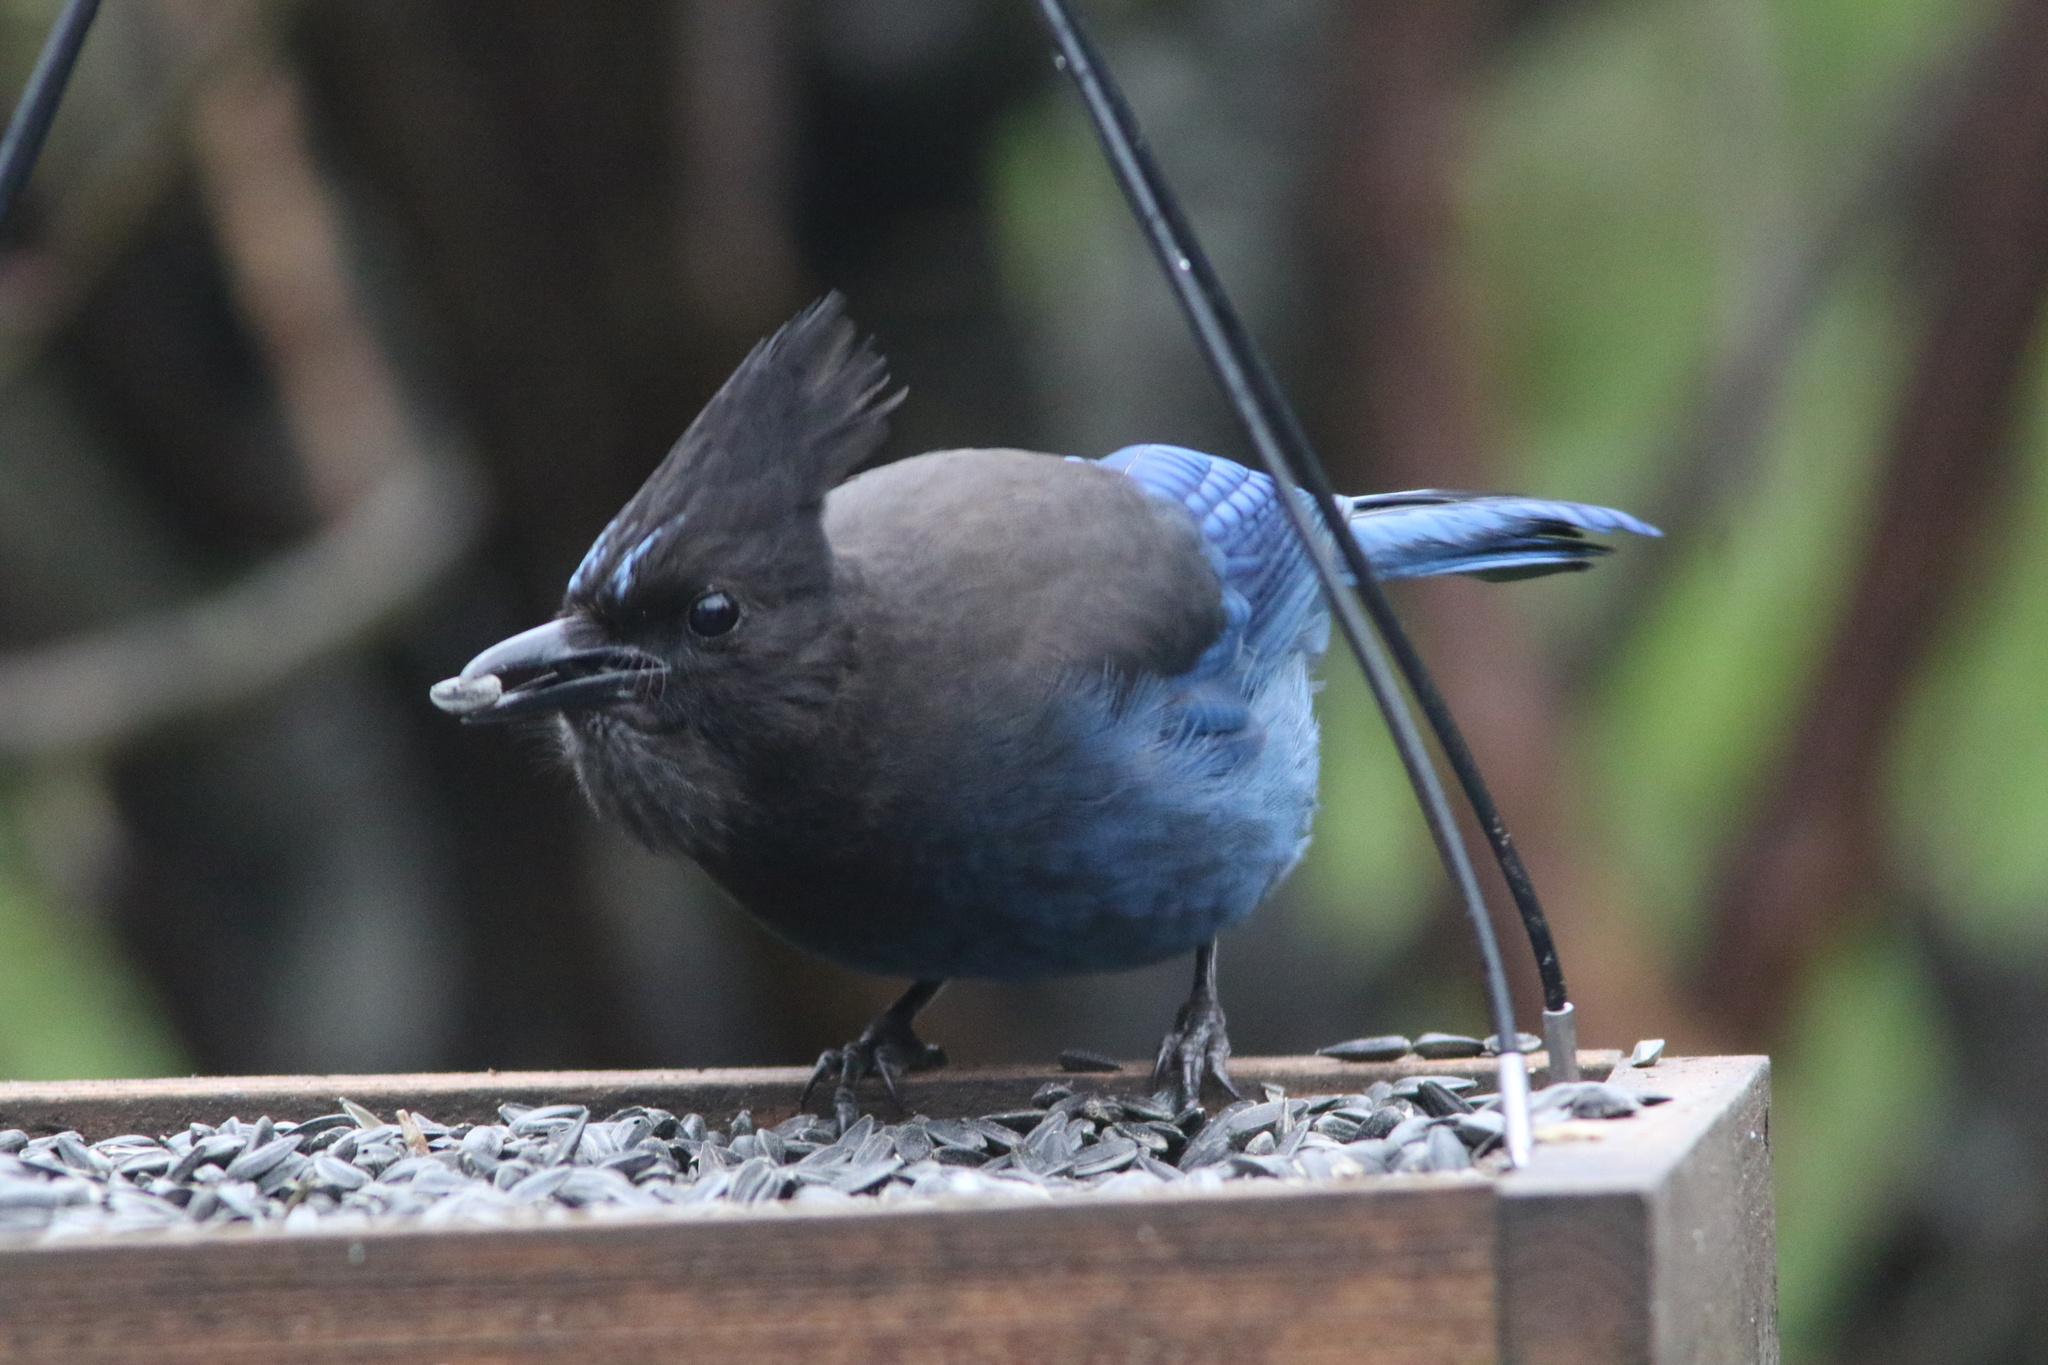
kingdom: Animalia
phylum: Chordata
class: Aves
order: Passeriformes
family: Corvidae
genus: Cyanocitta
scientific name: Cyanocitta stelleri
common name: Steller's jay
